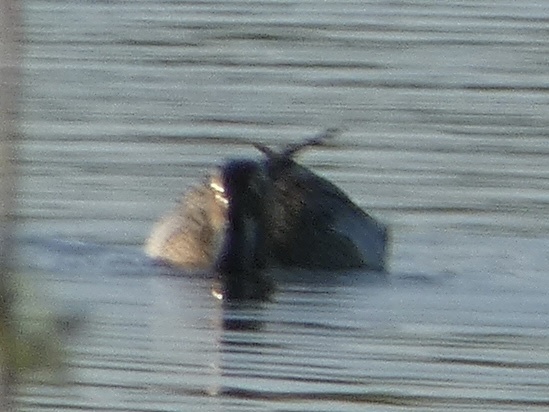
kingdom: Animalia
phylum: Chordata
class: Aves
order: Anseriformes
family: Anatidae
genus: Spatula
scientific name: Spatula querquedula
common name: Garganey
